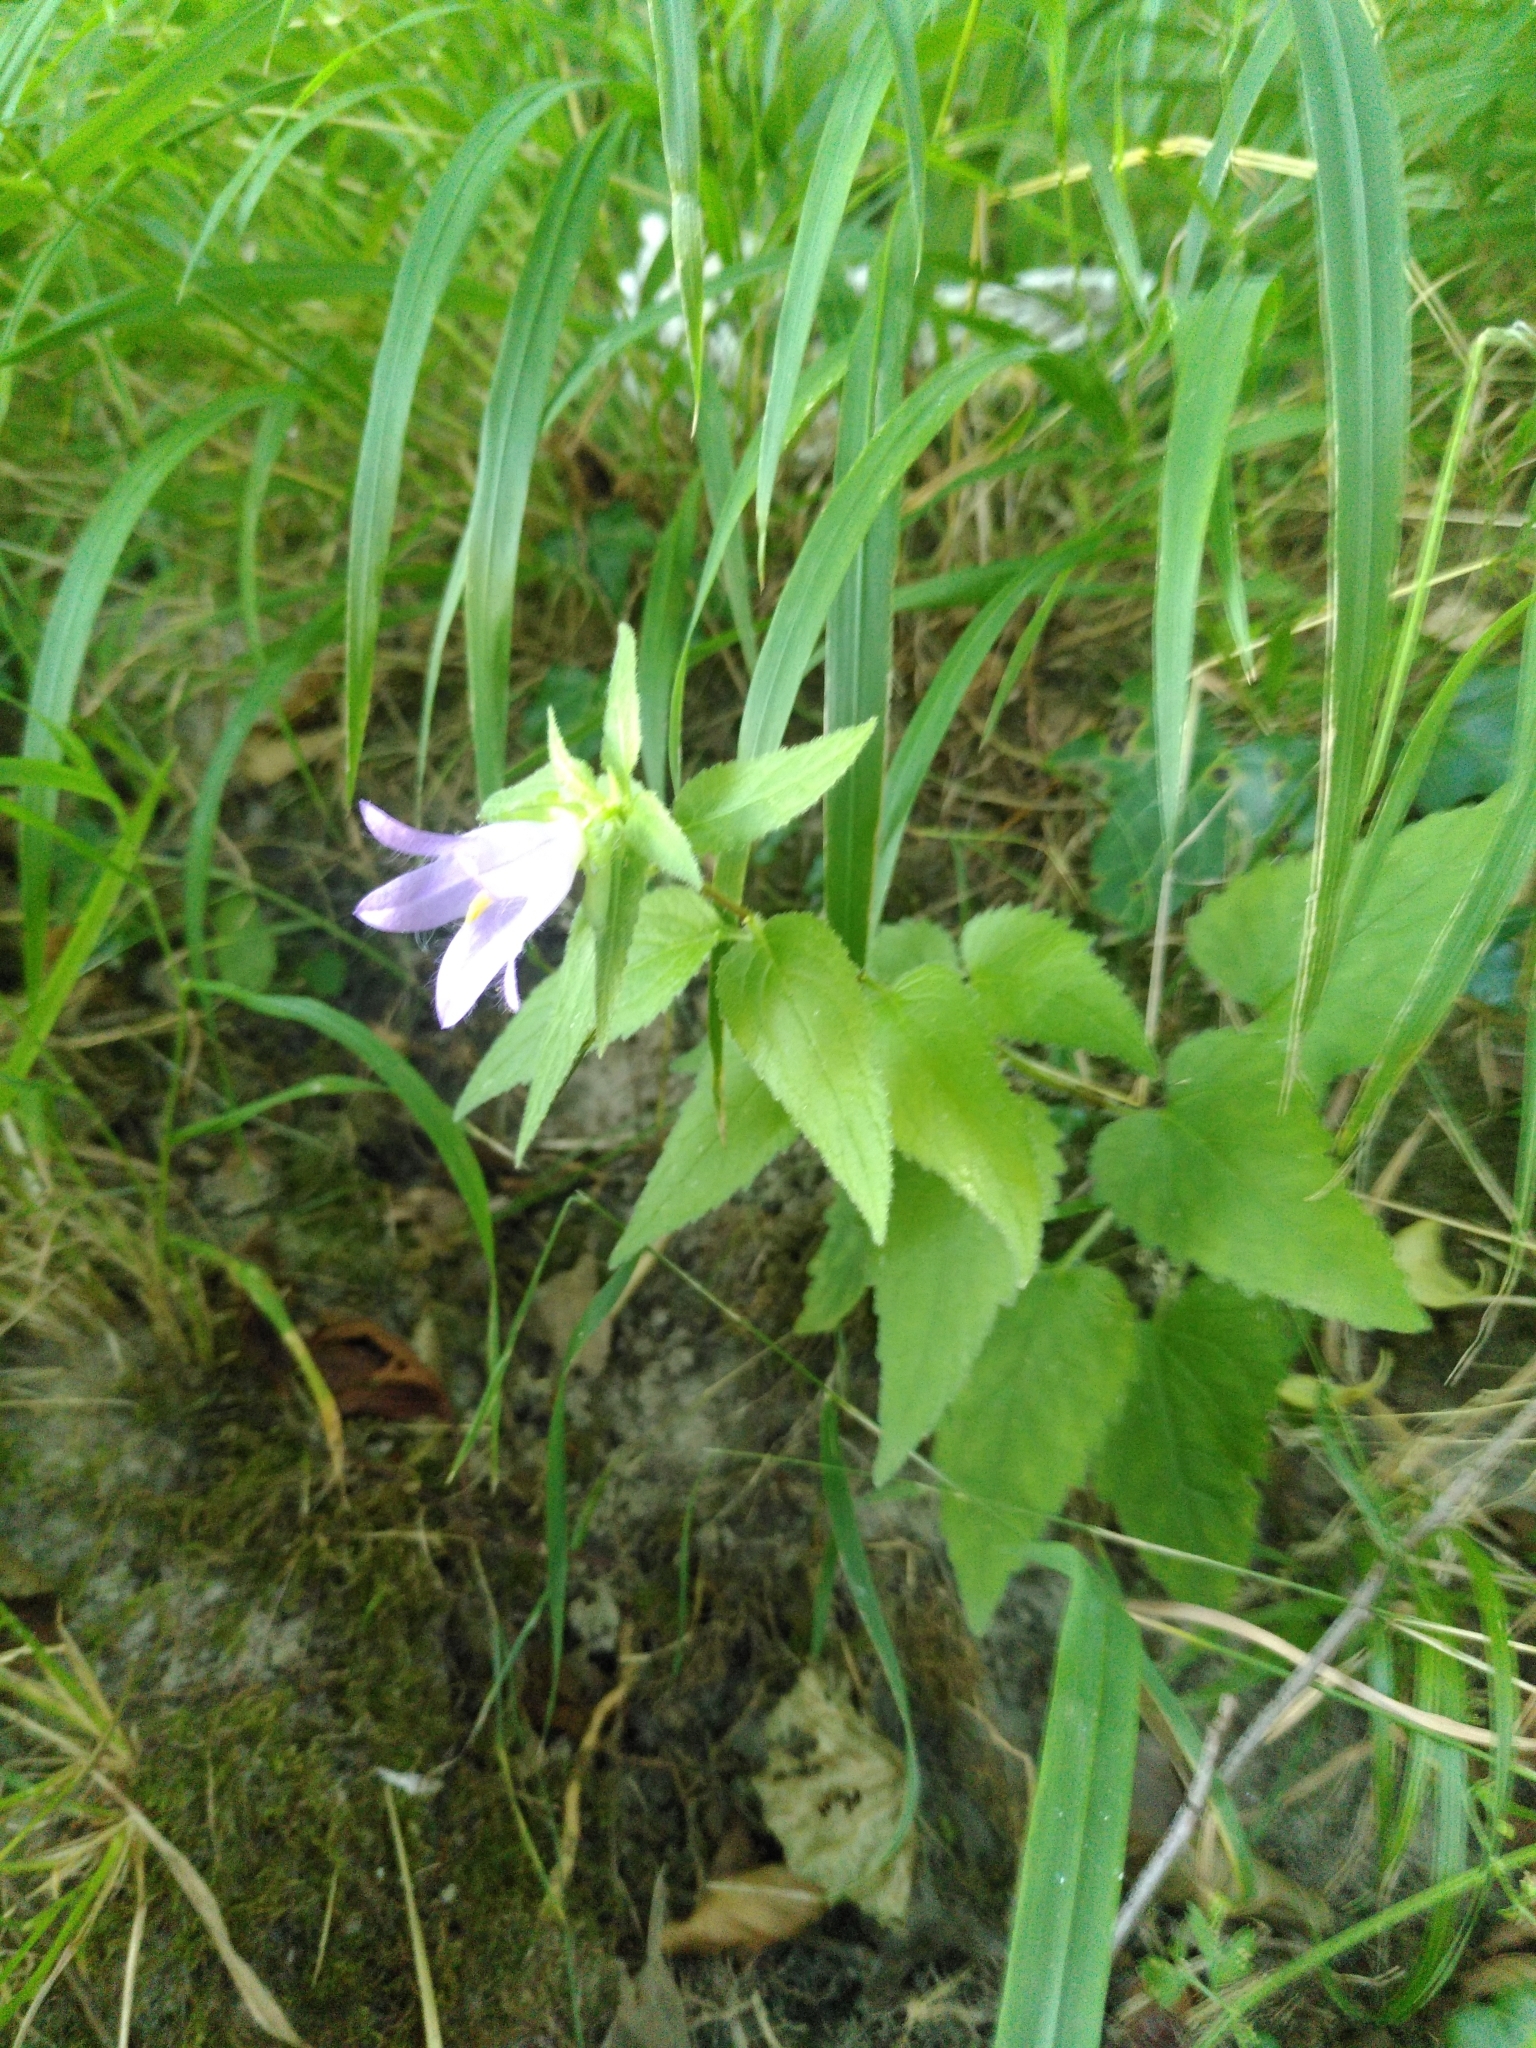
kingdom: Plantae
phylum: Tracheophyta
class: Magnoliopsida
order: Asterales
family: Campanulaceae
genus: Campanula
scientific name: Campanula trachelium
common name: Nettle-leaved bellflower
